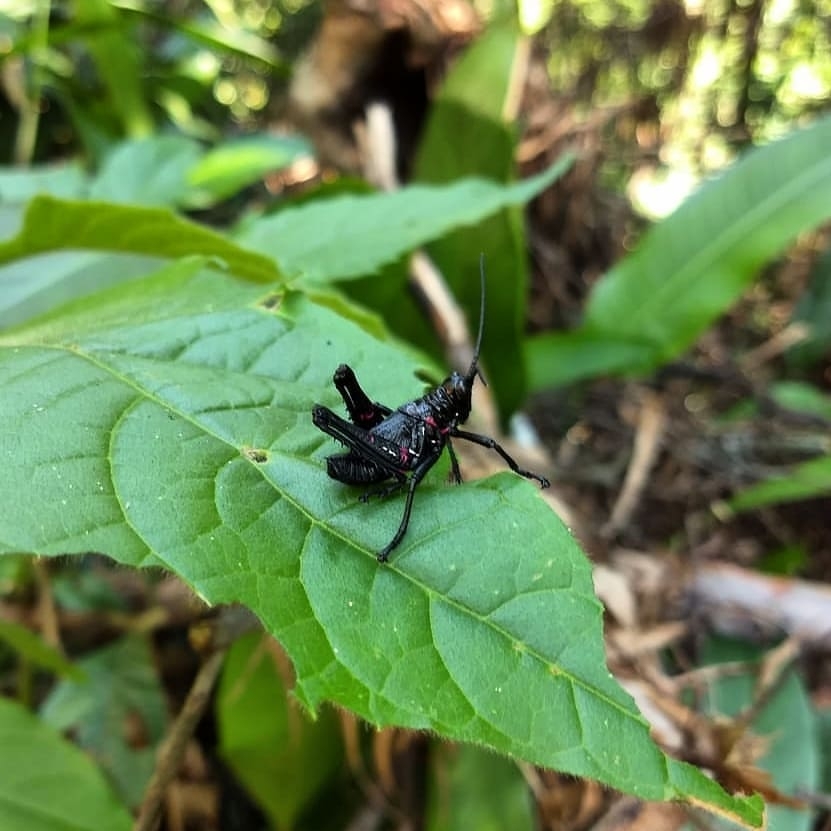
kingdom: Animalia
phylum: Arthropoda
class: Insecta
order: Orthoptera
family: Romaleidae
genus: Chromacris
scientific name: Chromacris speciosa
